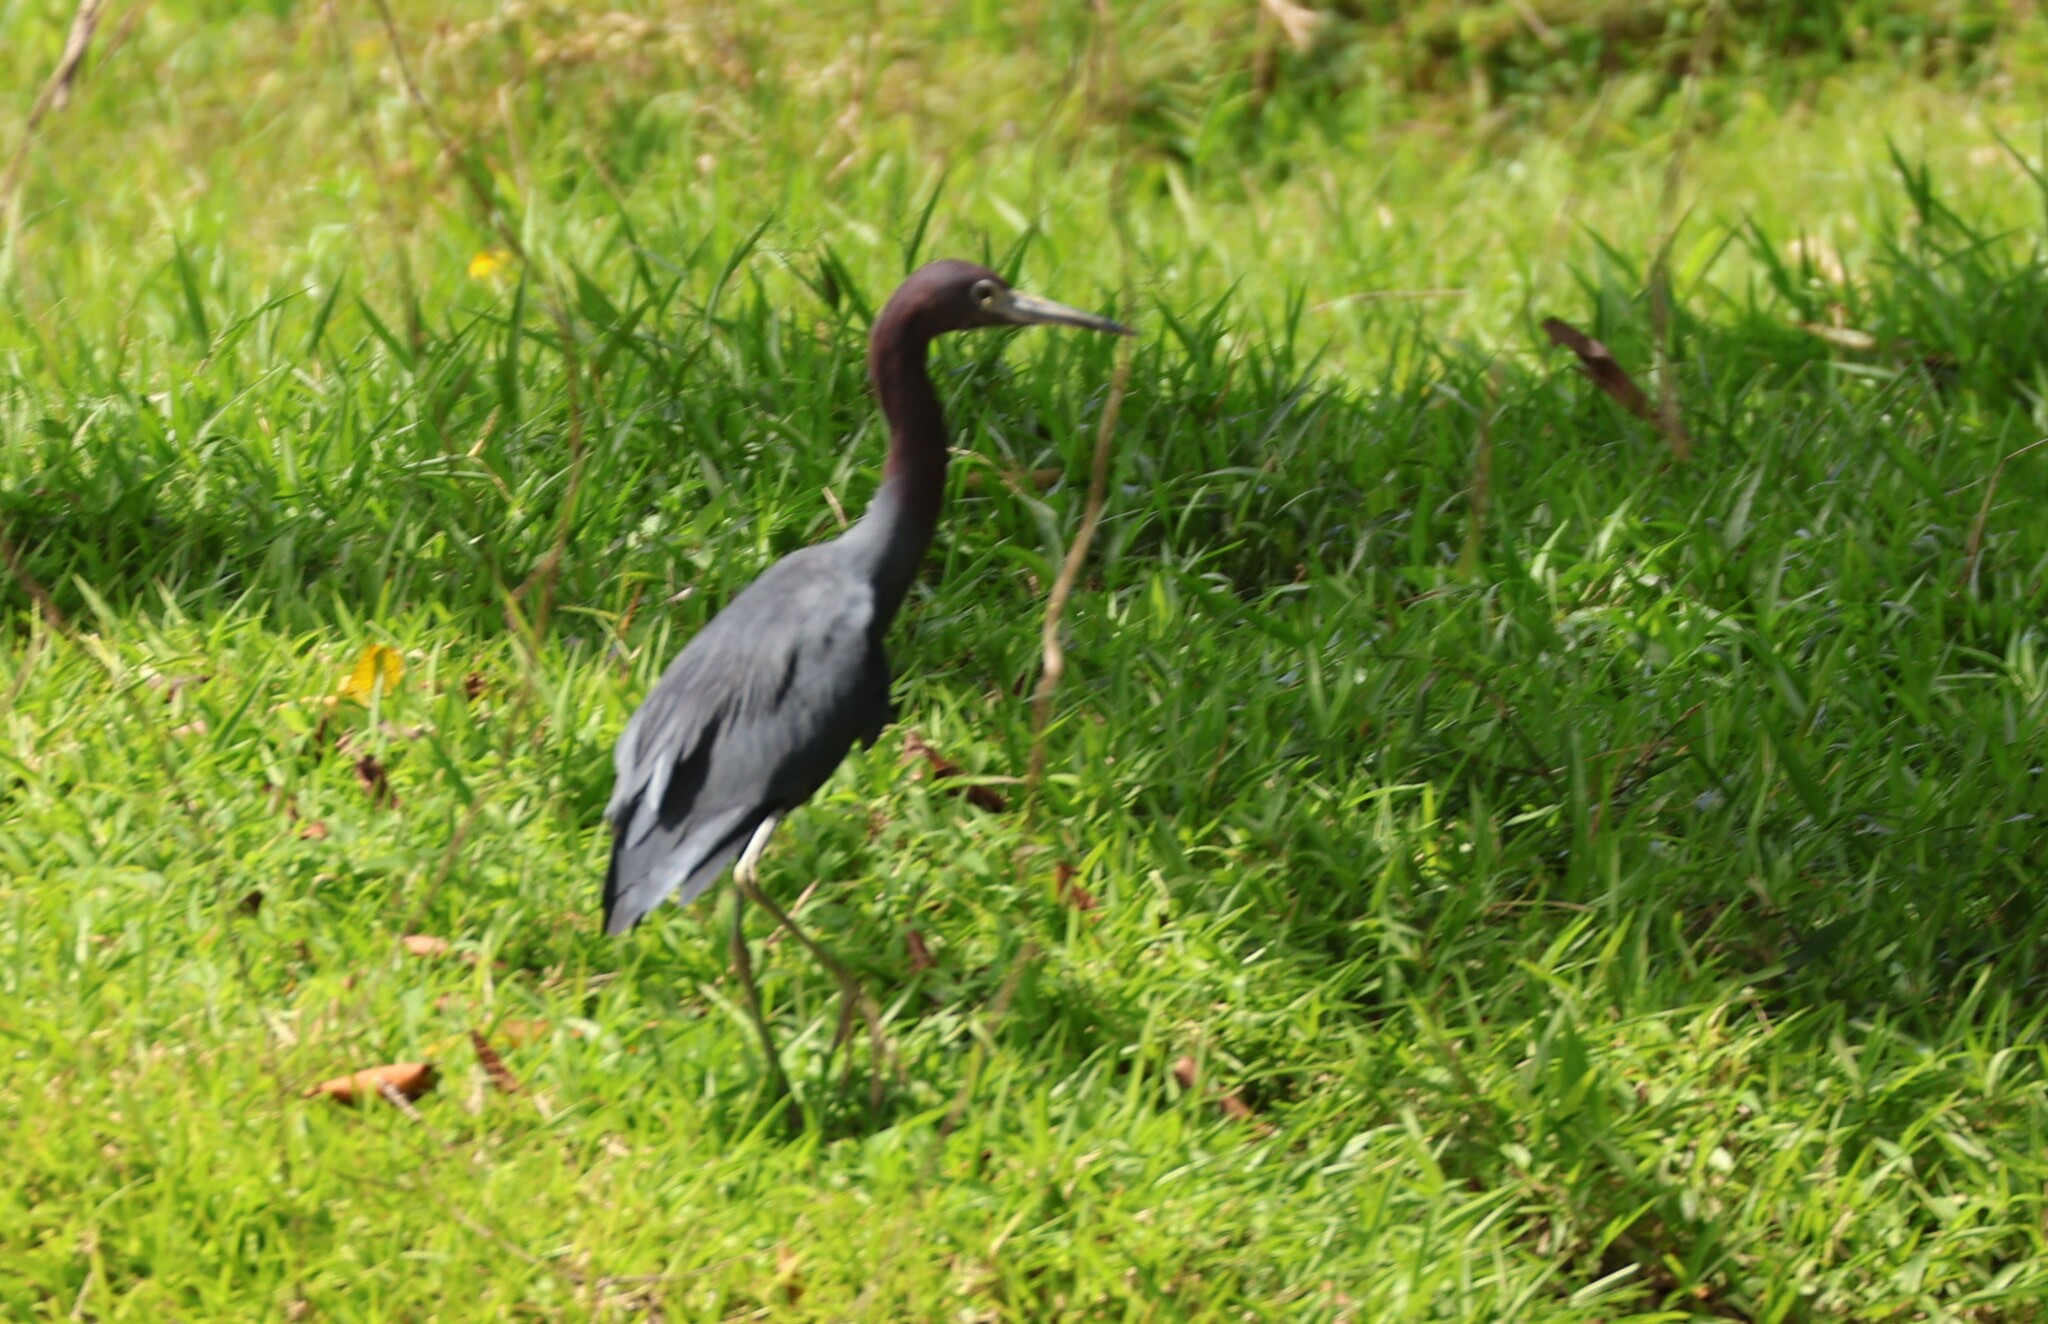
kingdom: Animalia
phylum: Chordata
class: Aves
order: Pelecaniformes
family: Ardeidae
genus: Egretta
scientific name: Egretta caerulea
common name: Little blue heron
